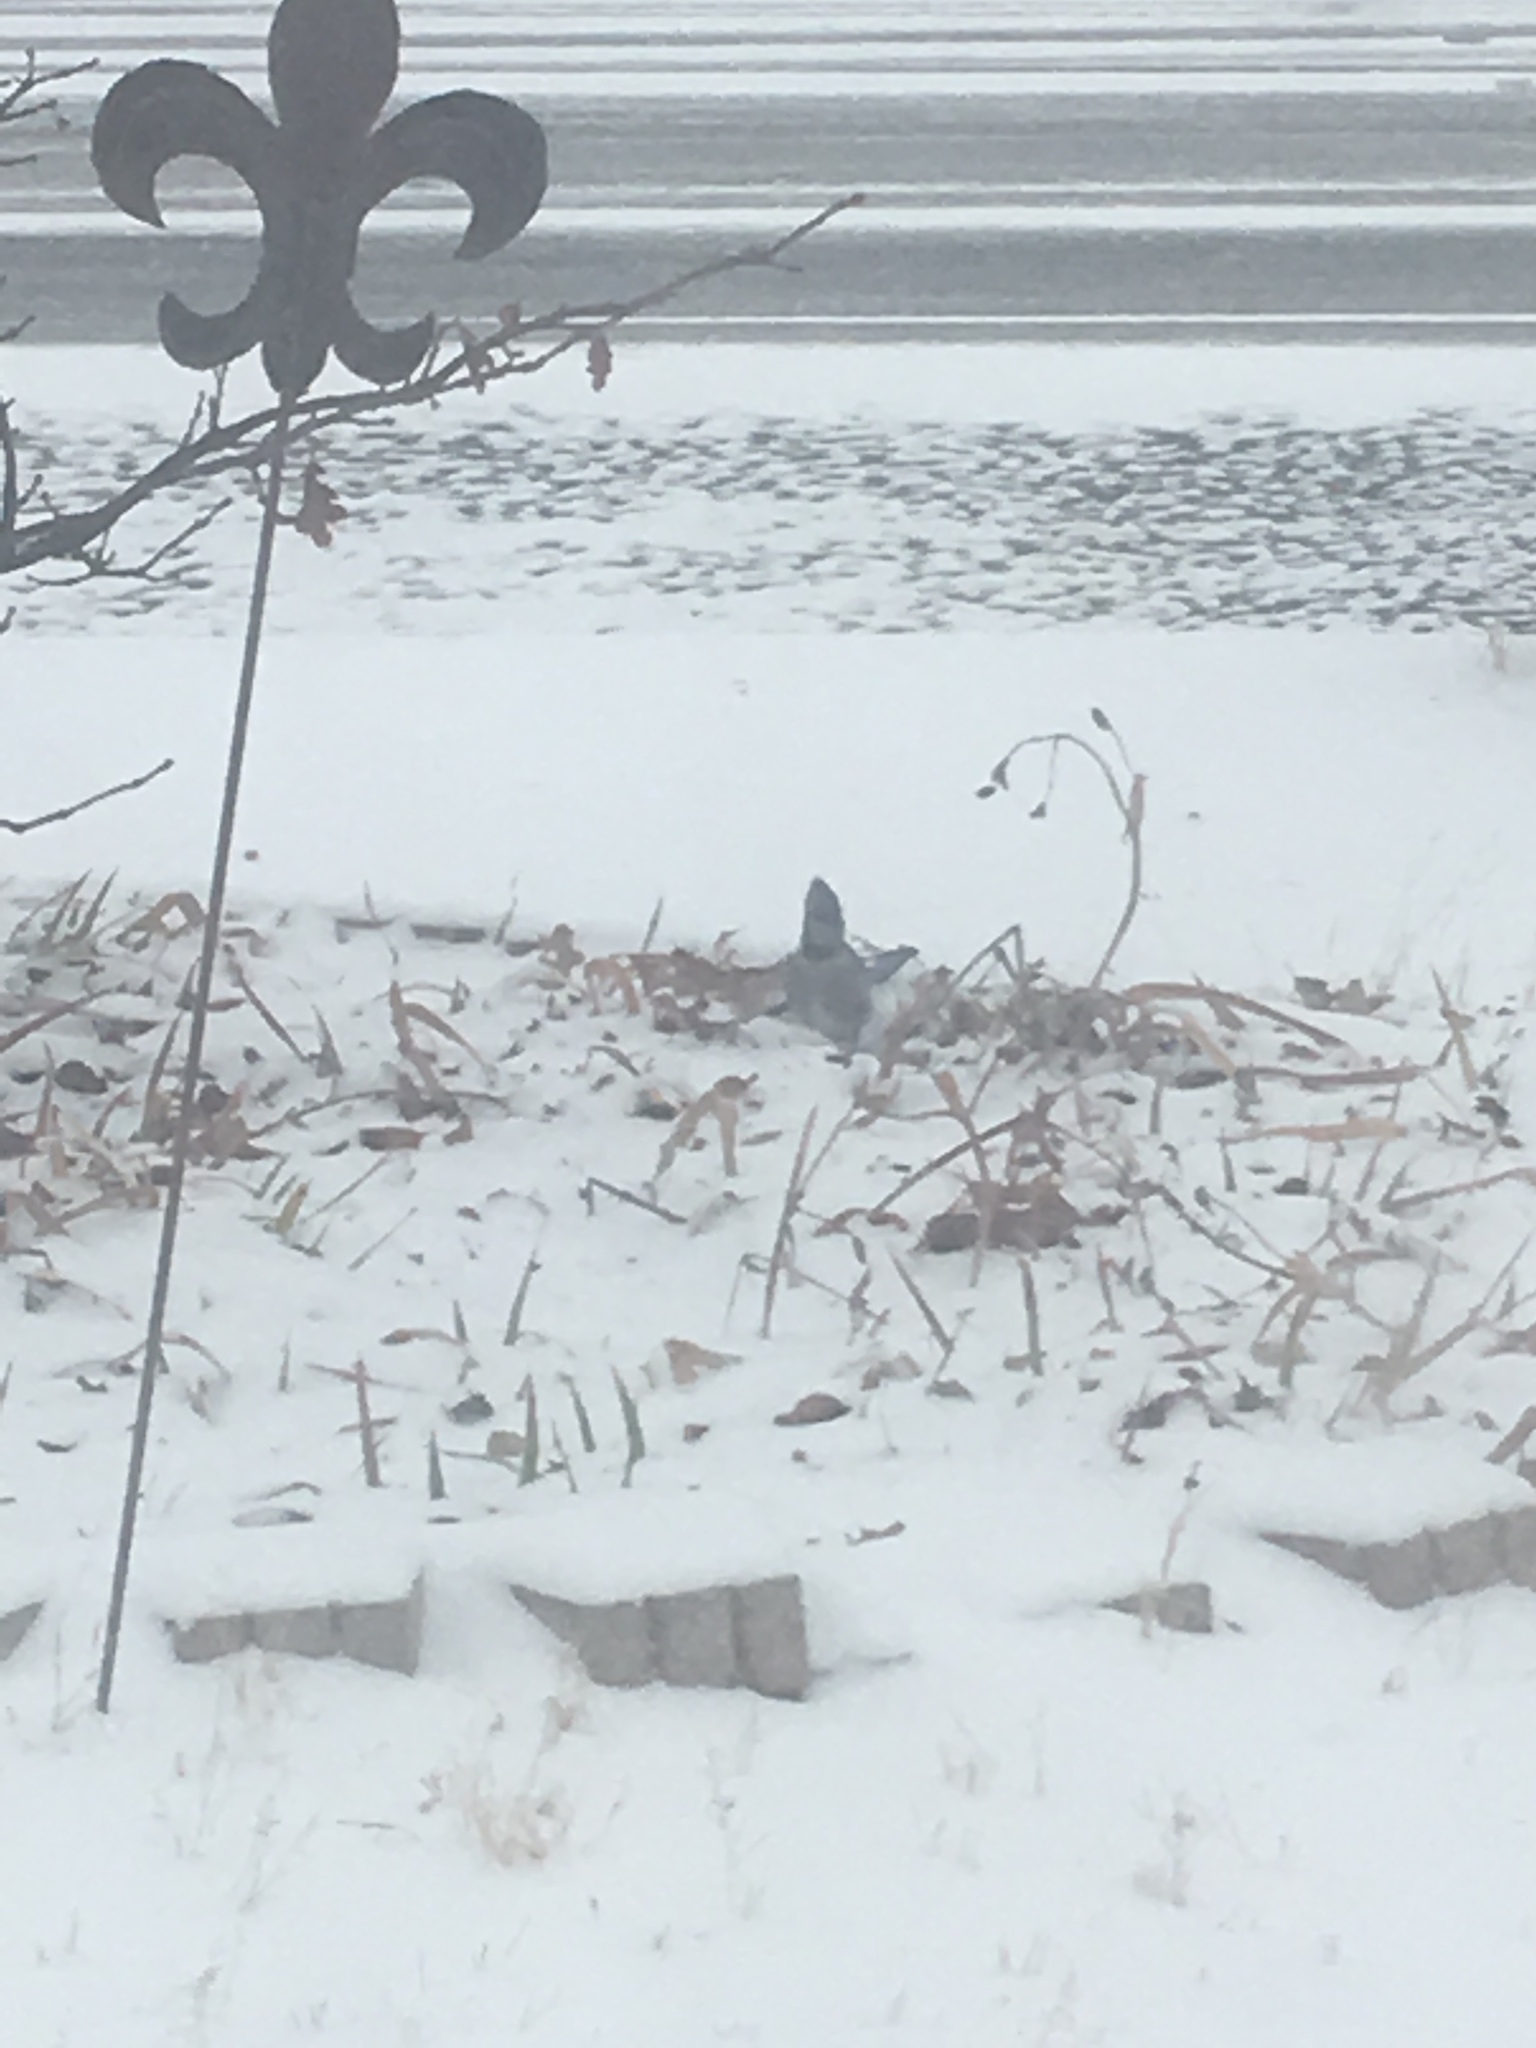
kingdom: Animalia
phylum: Chordata
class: Aves
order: Passeriformes
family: Corvidae
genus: Cyanocitta
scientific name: Cyanocitta cristata
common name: Blue jay
